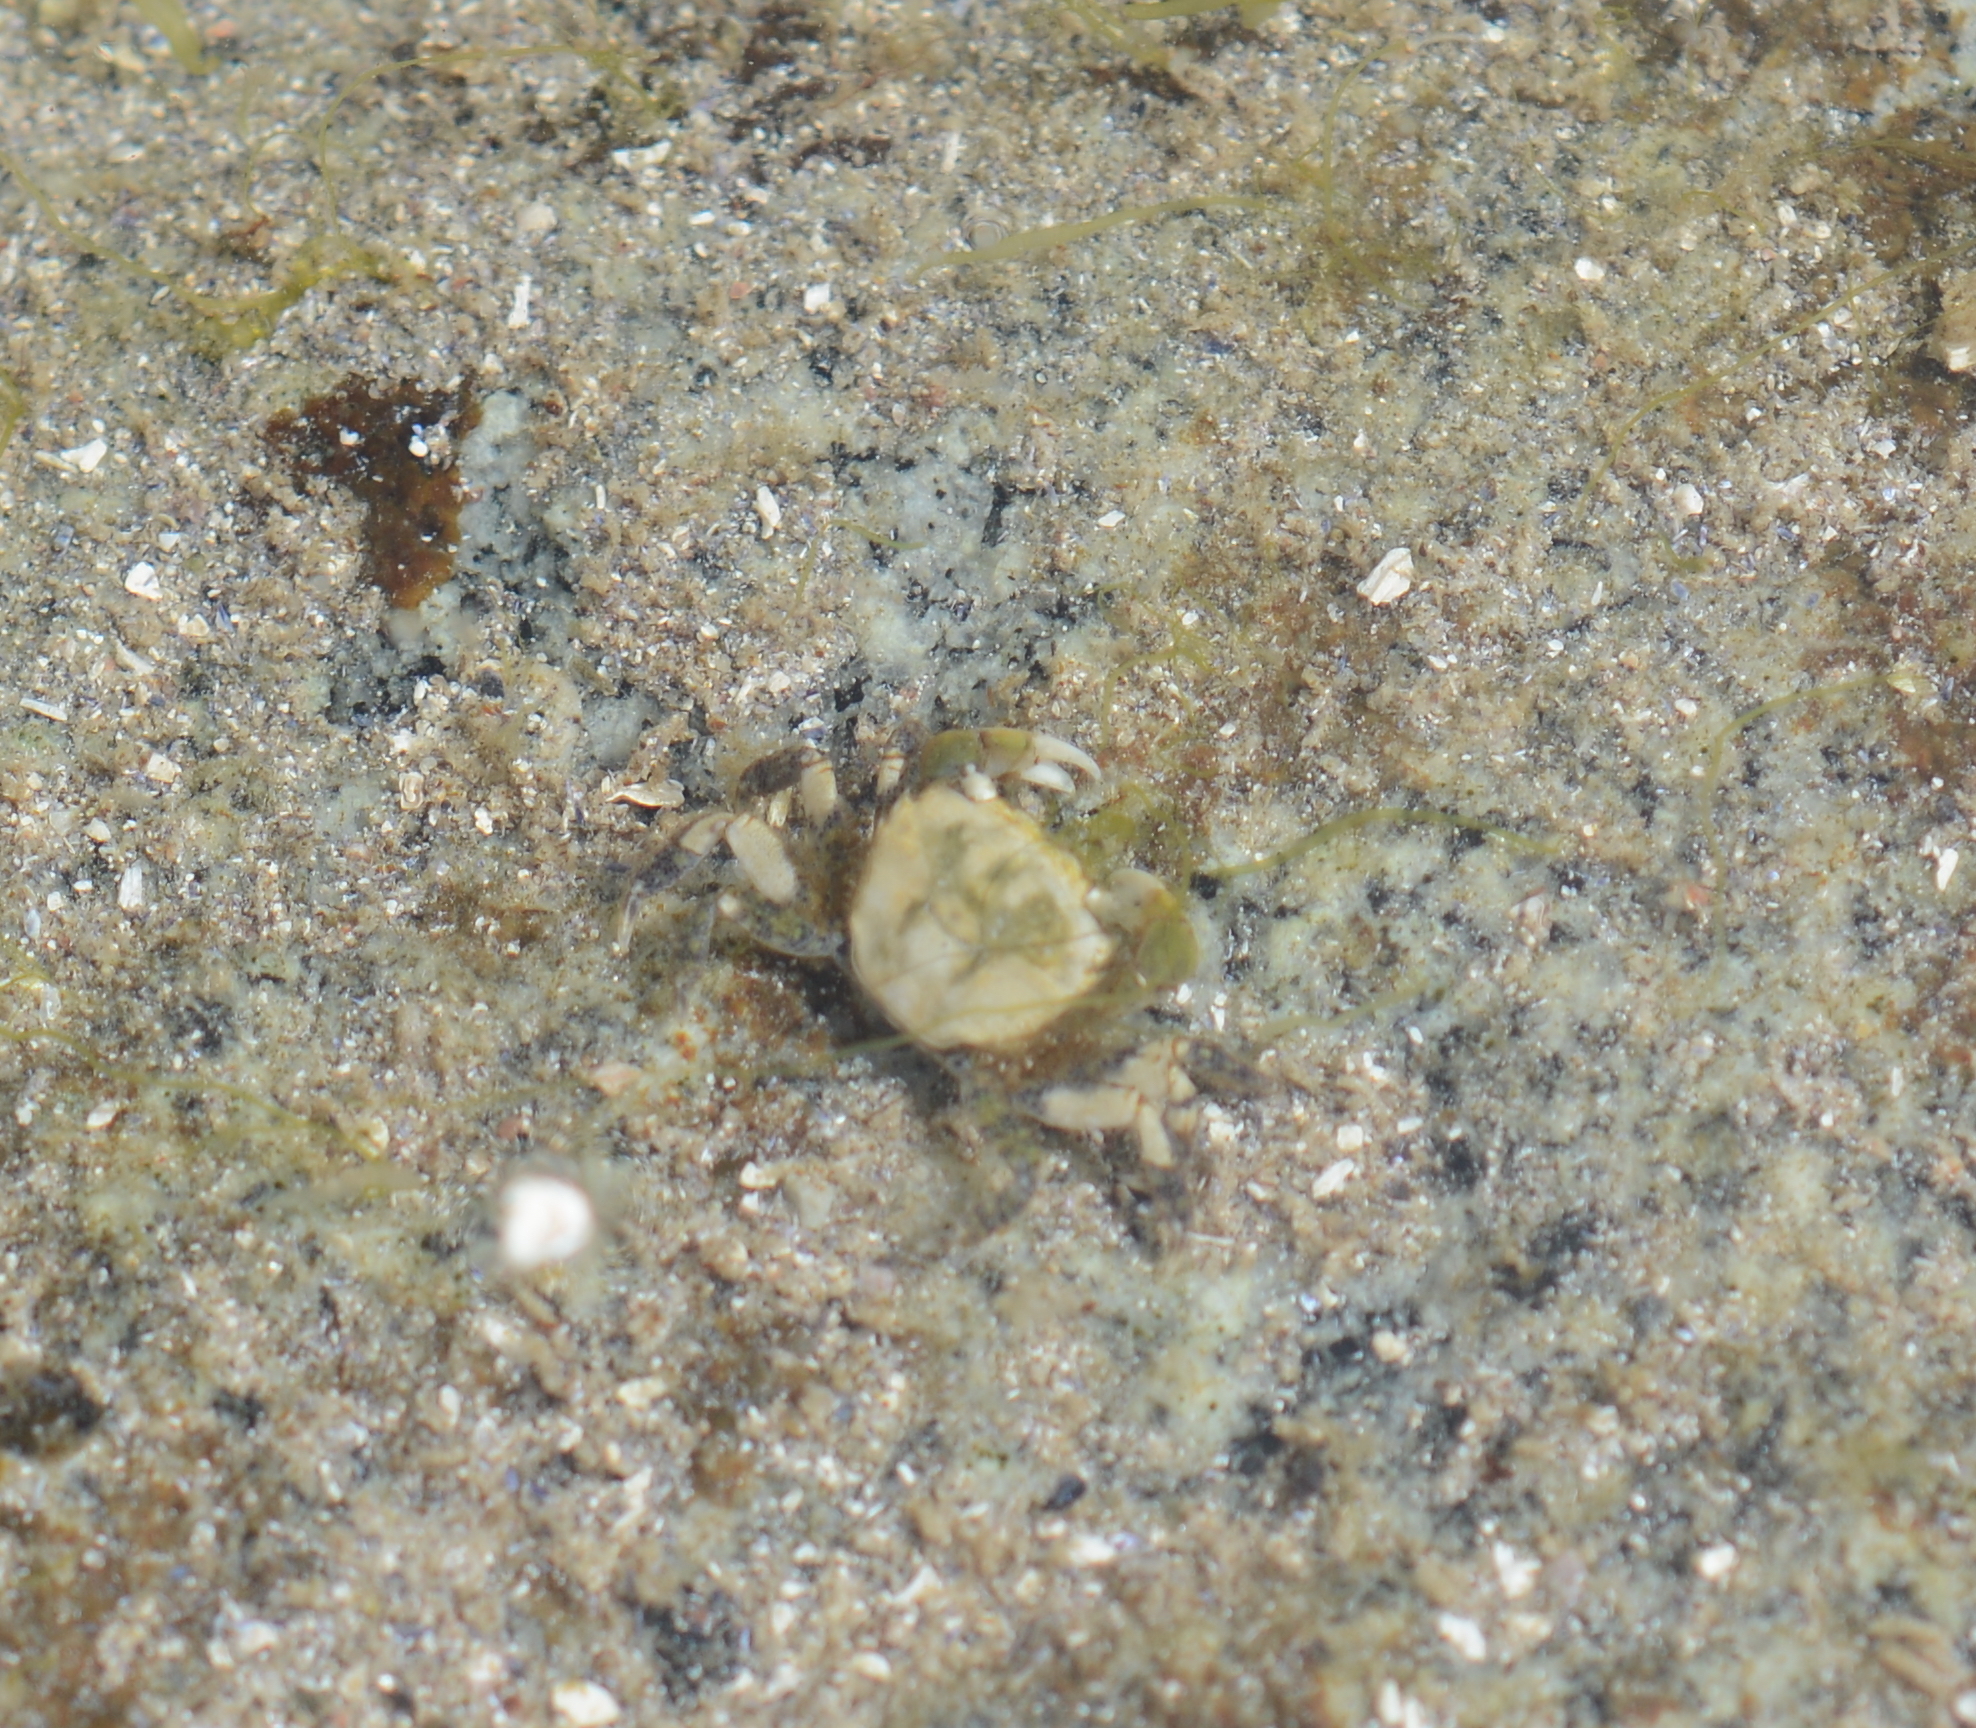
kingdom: Animalia
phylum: Arthropoda
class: Malacostraca
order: Decapoda
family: Varunidae
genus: Hemigrapsus
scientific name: Hemigrapsus oregonensis
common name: Yellow shore crab
